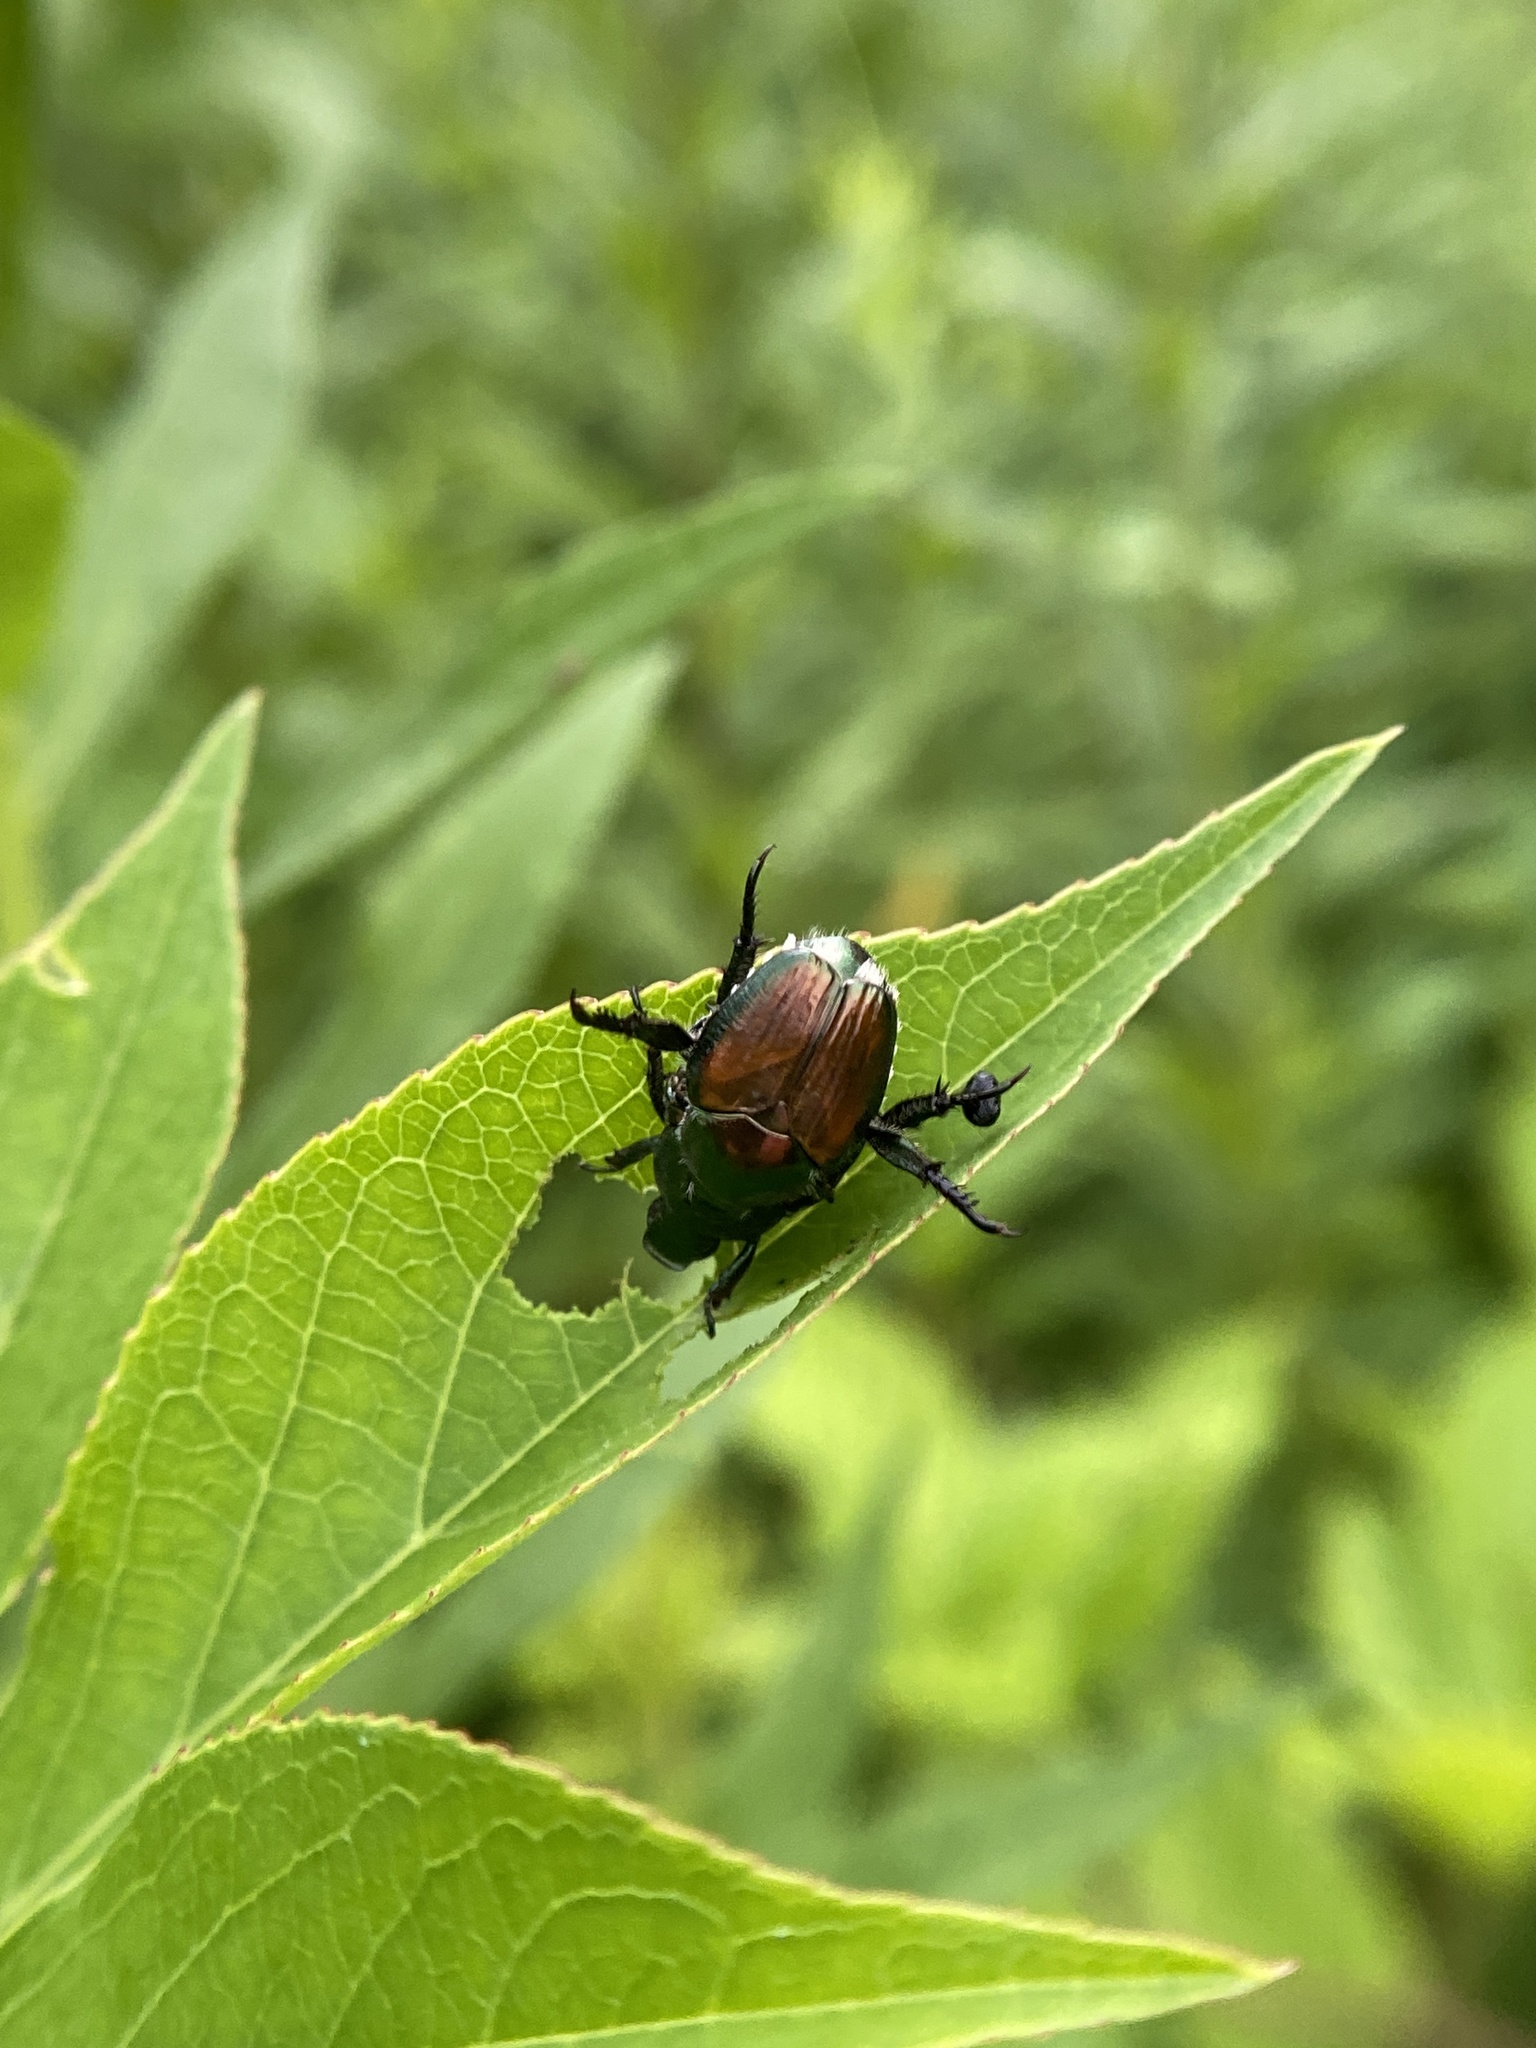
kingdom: Animalia
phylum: Arthropoda
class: Insecta
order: Coleoptera
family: Scarabaeidae
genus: Popillia
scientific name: Popillia japonica
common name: Japanese beetle
